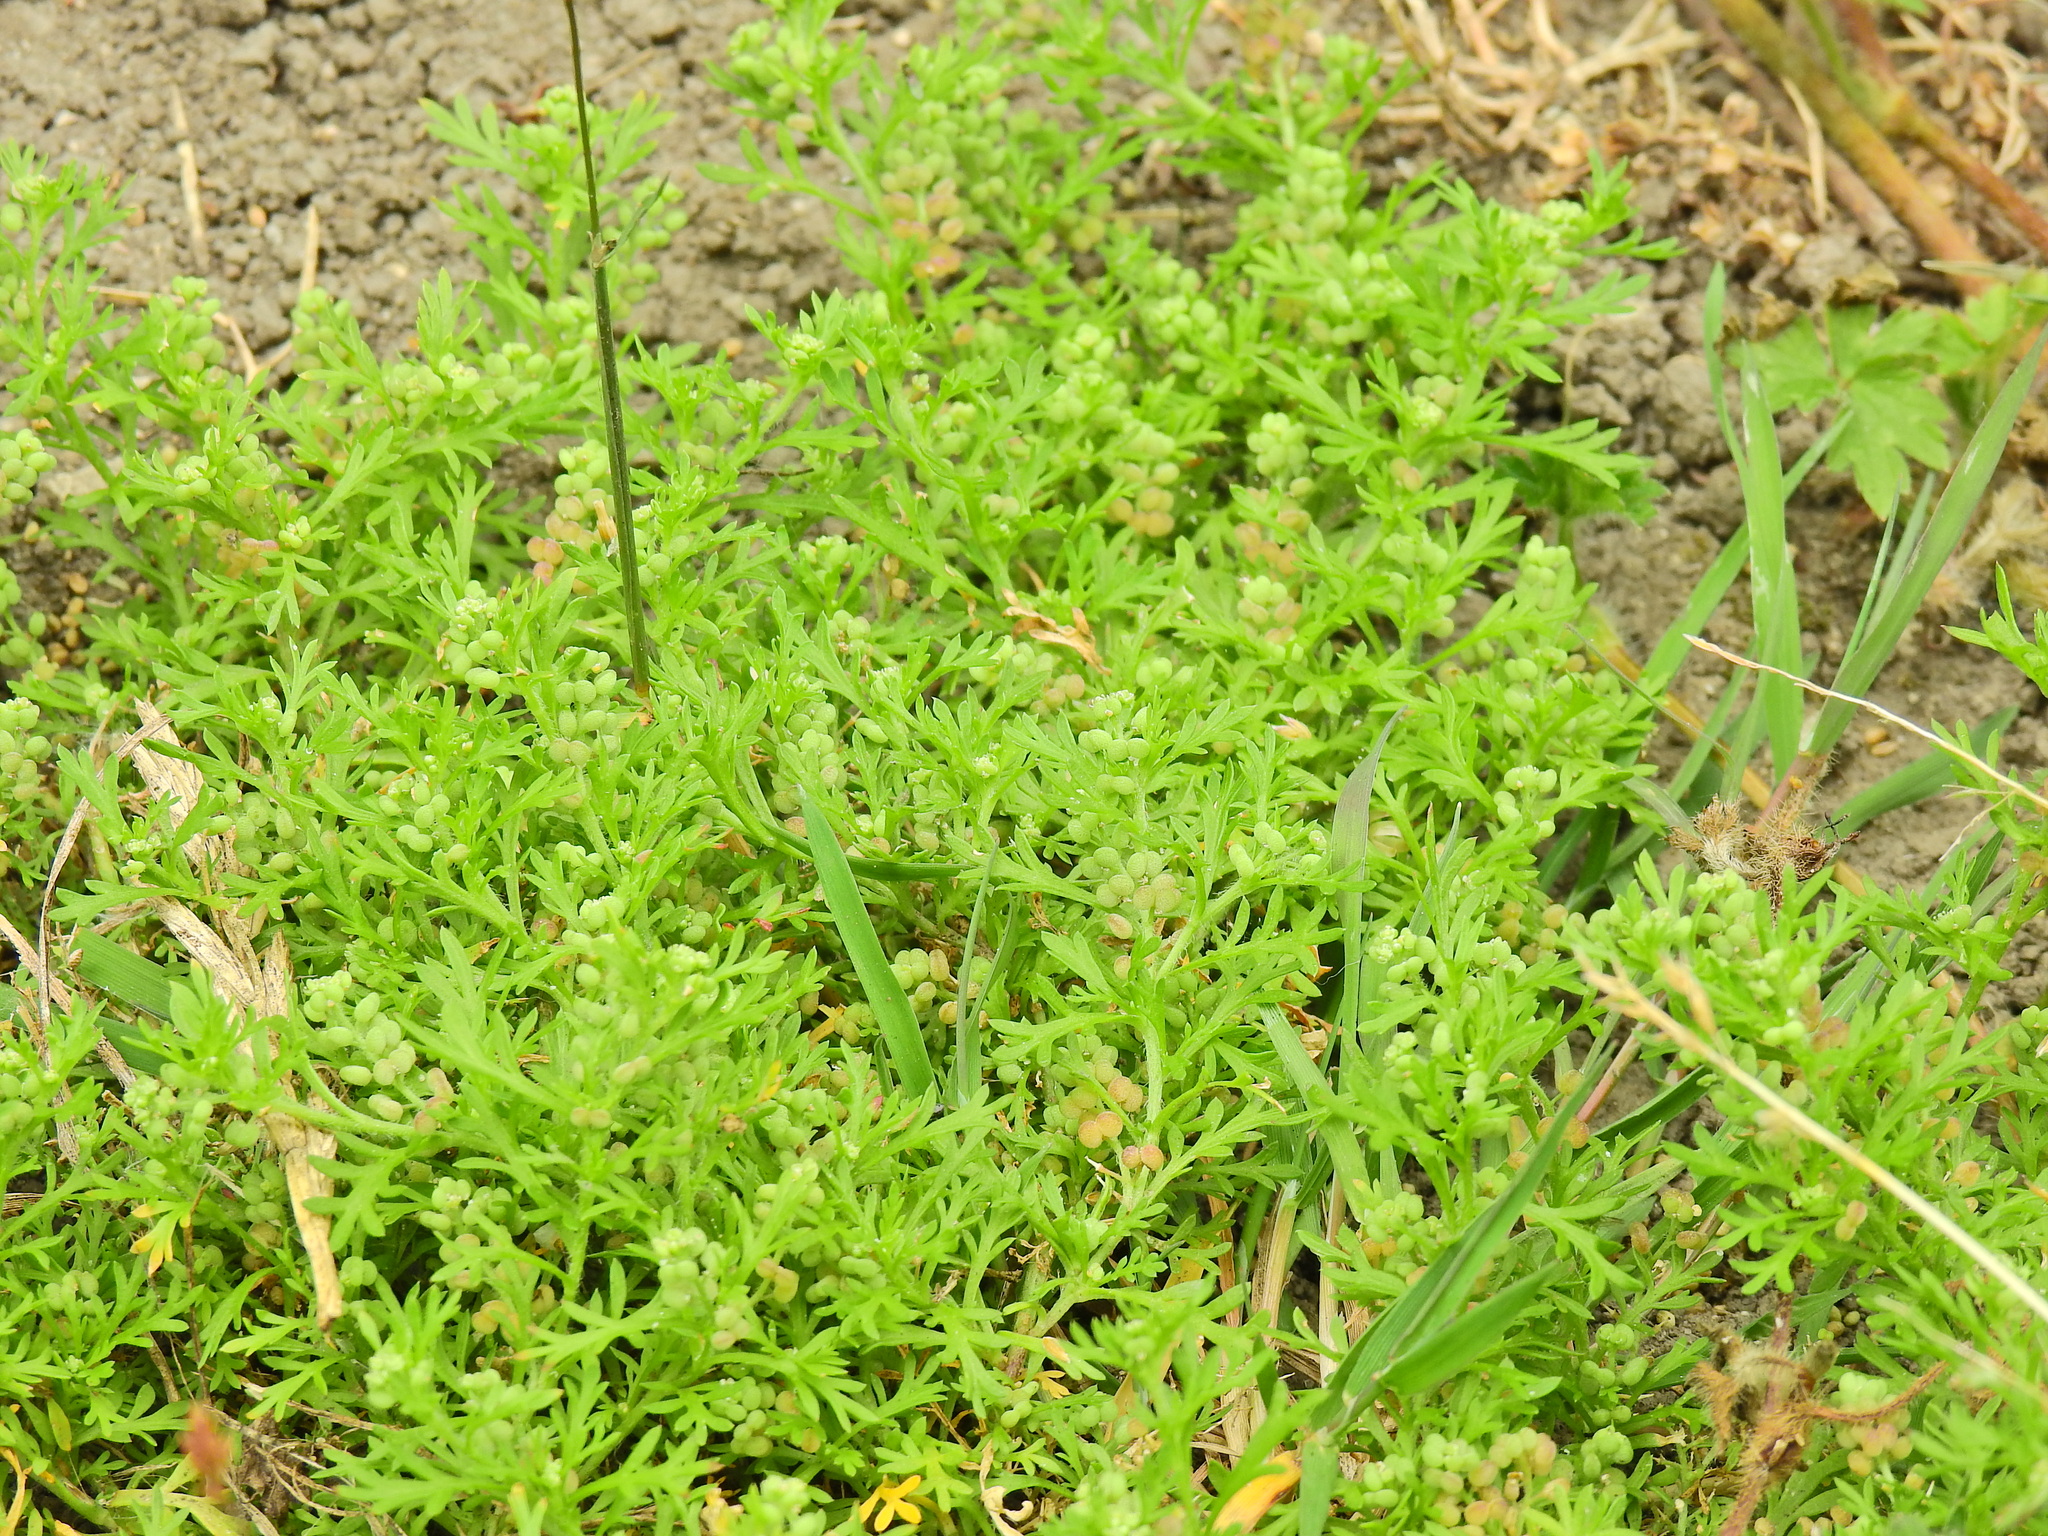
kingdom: Plantae
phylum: Tracheophyta
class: Magnoliopsida
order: Brassicales
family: Brassicaceae
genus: Lepidium
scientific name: Lepidium didymum
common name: Lesser swinecress
